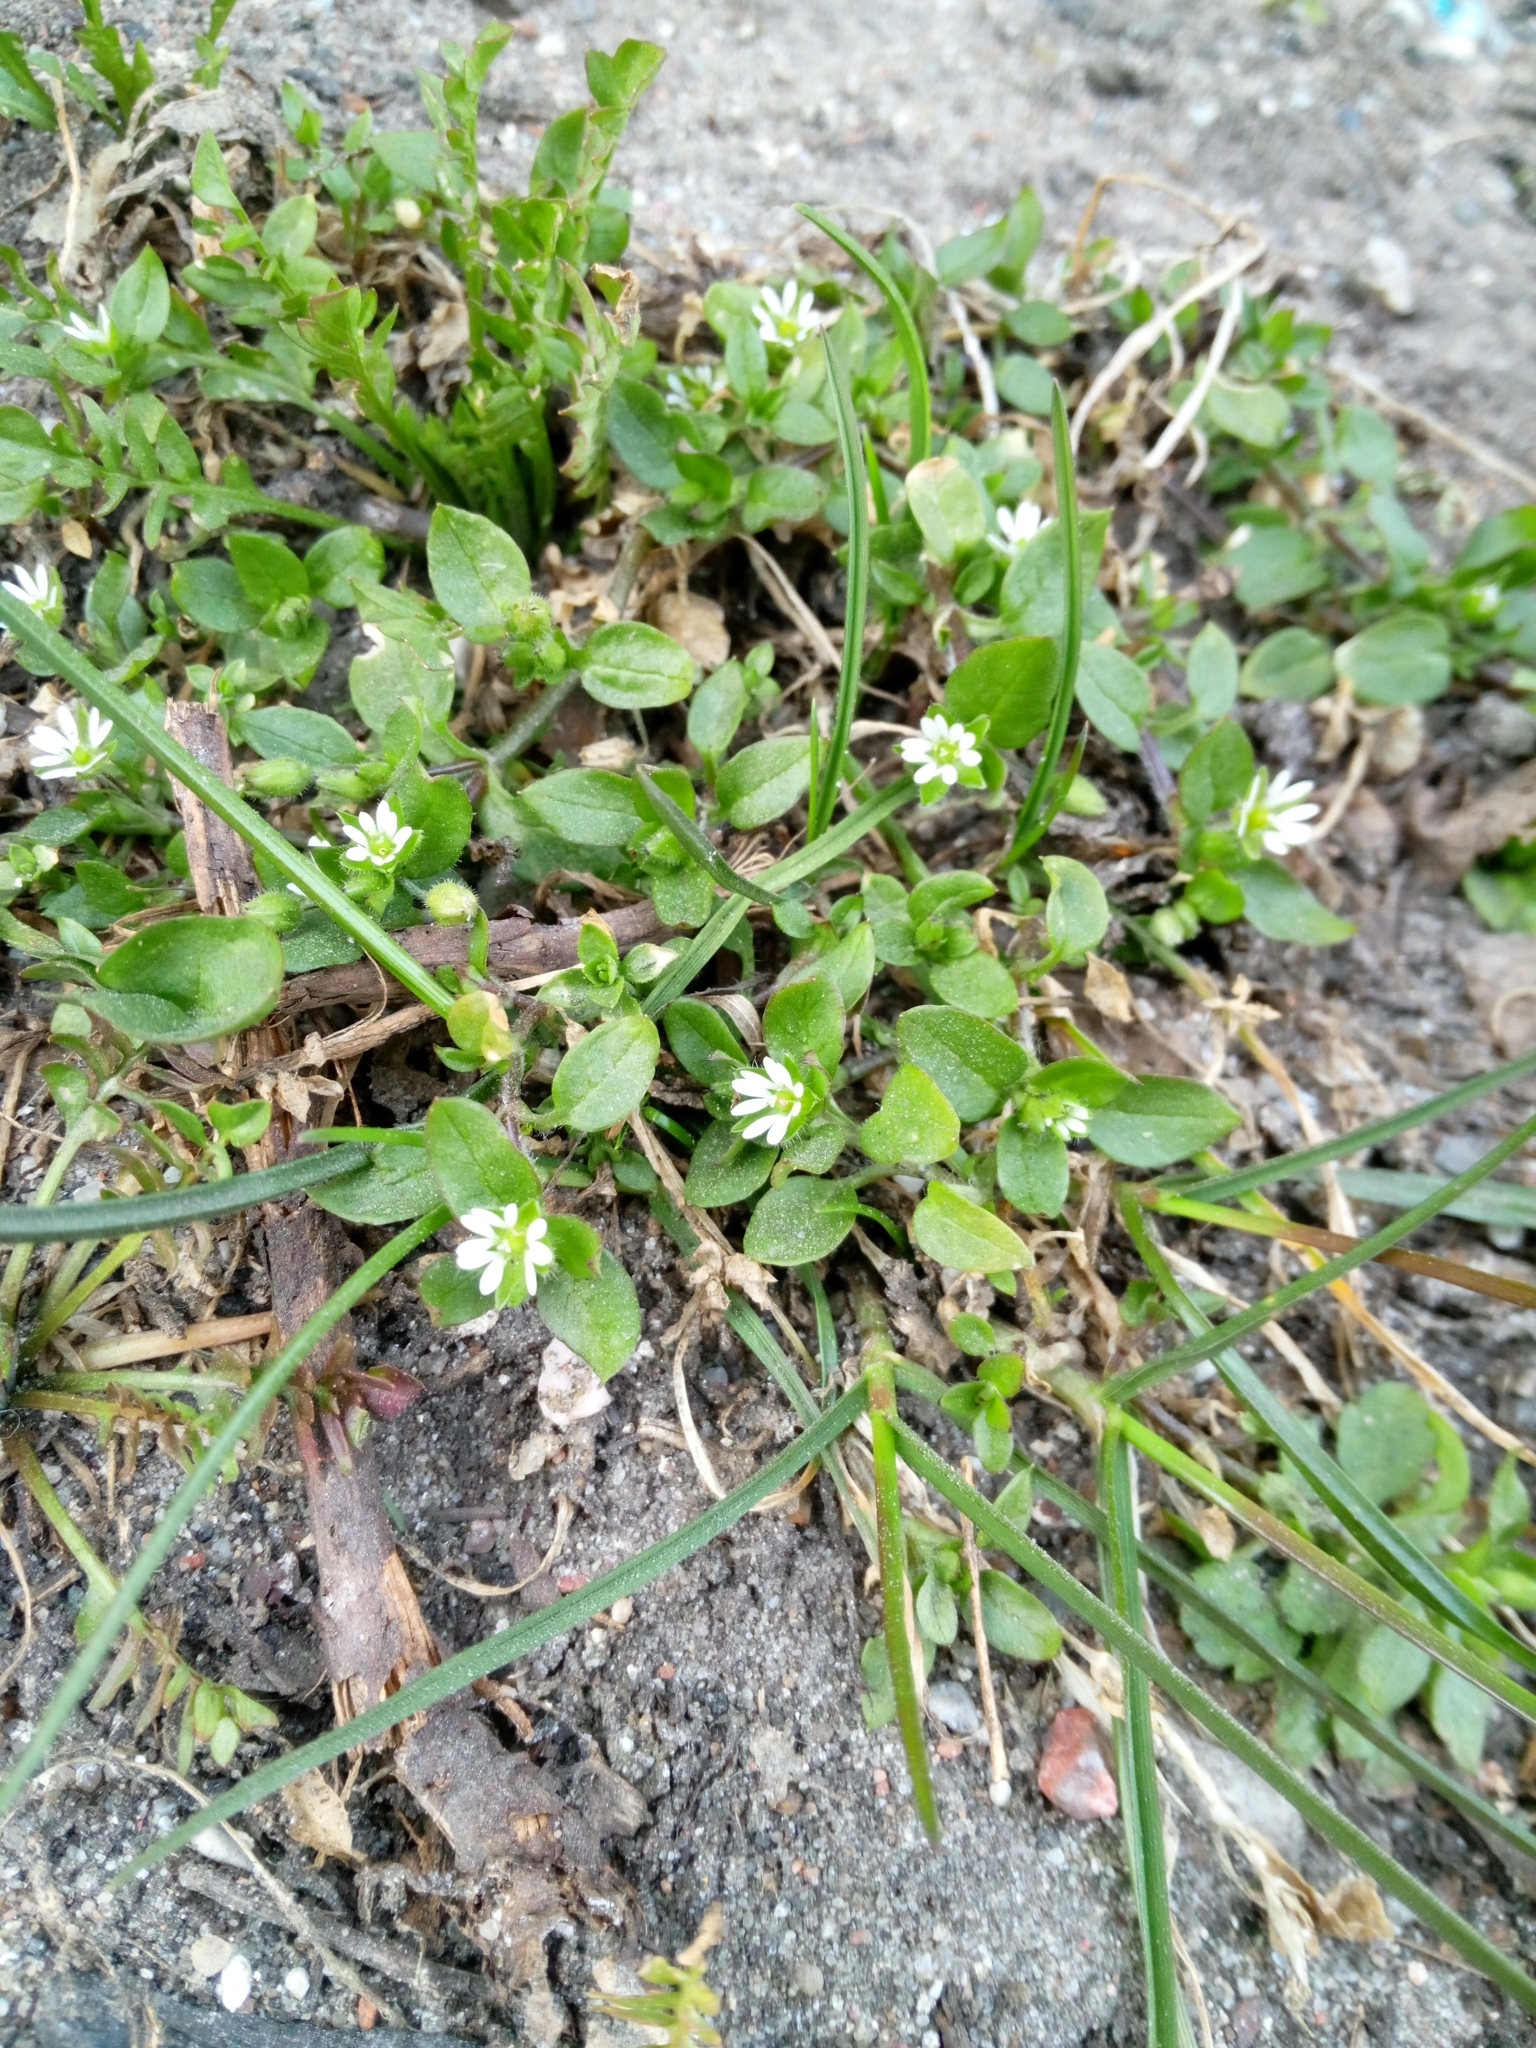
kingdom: Plantae
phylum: Tracheophyta
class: Magnoliopsida
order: Caryophyllales
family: Caryophyllaceae
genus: Stellaria
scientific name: Stellaria media
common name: Common chickweed
